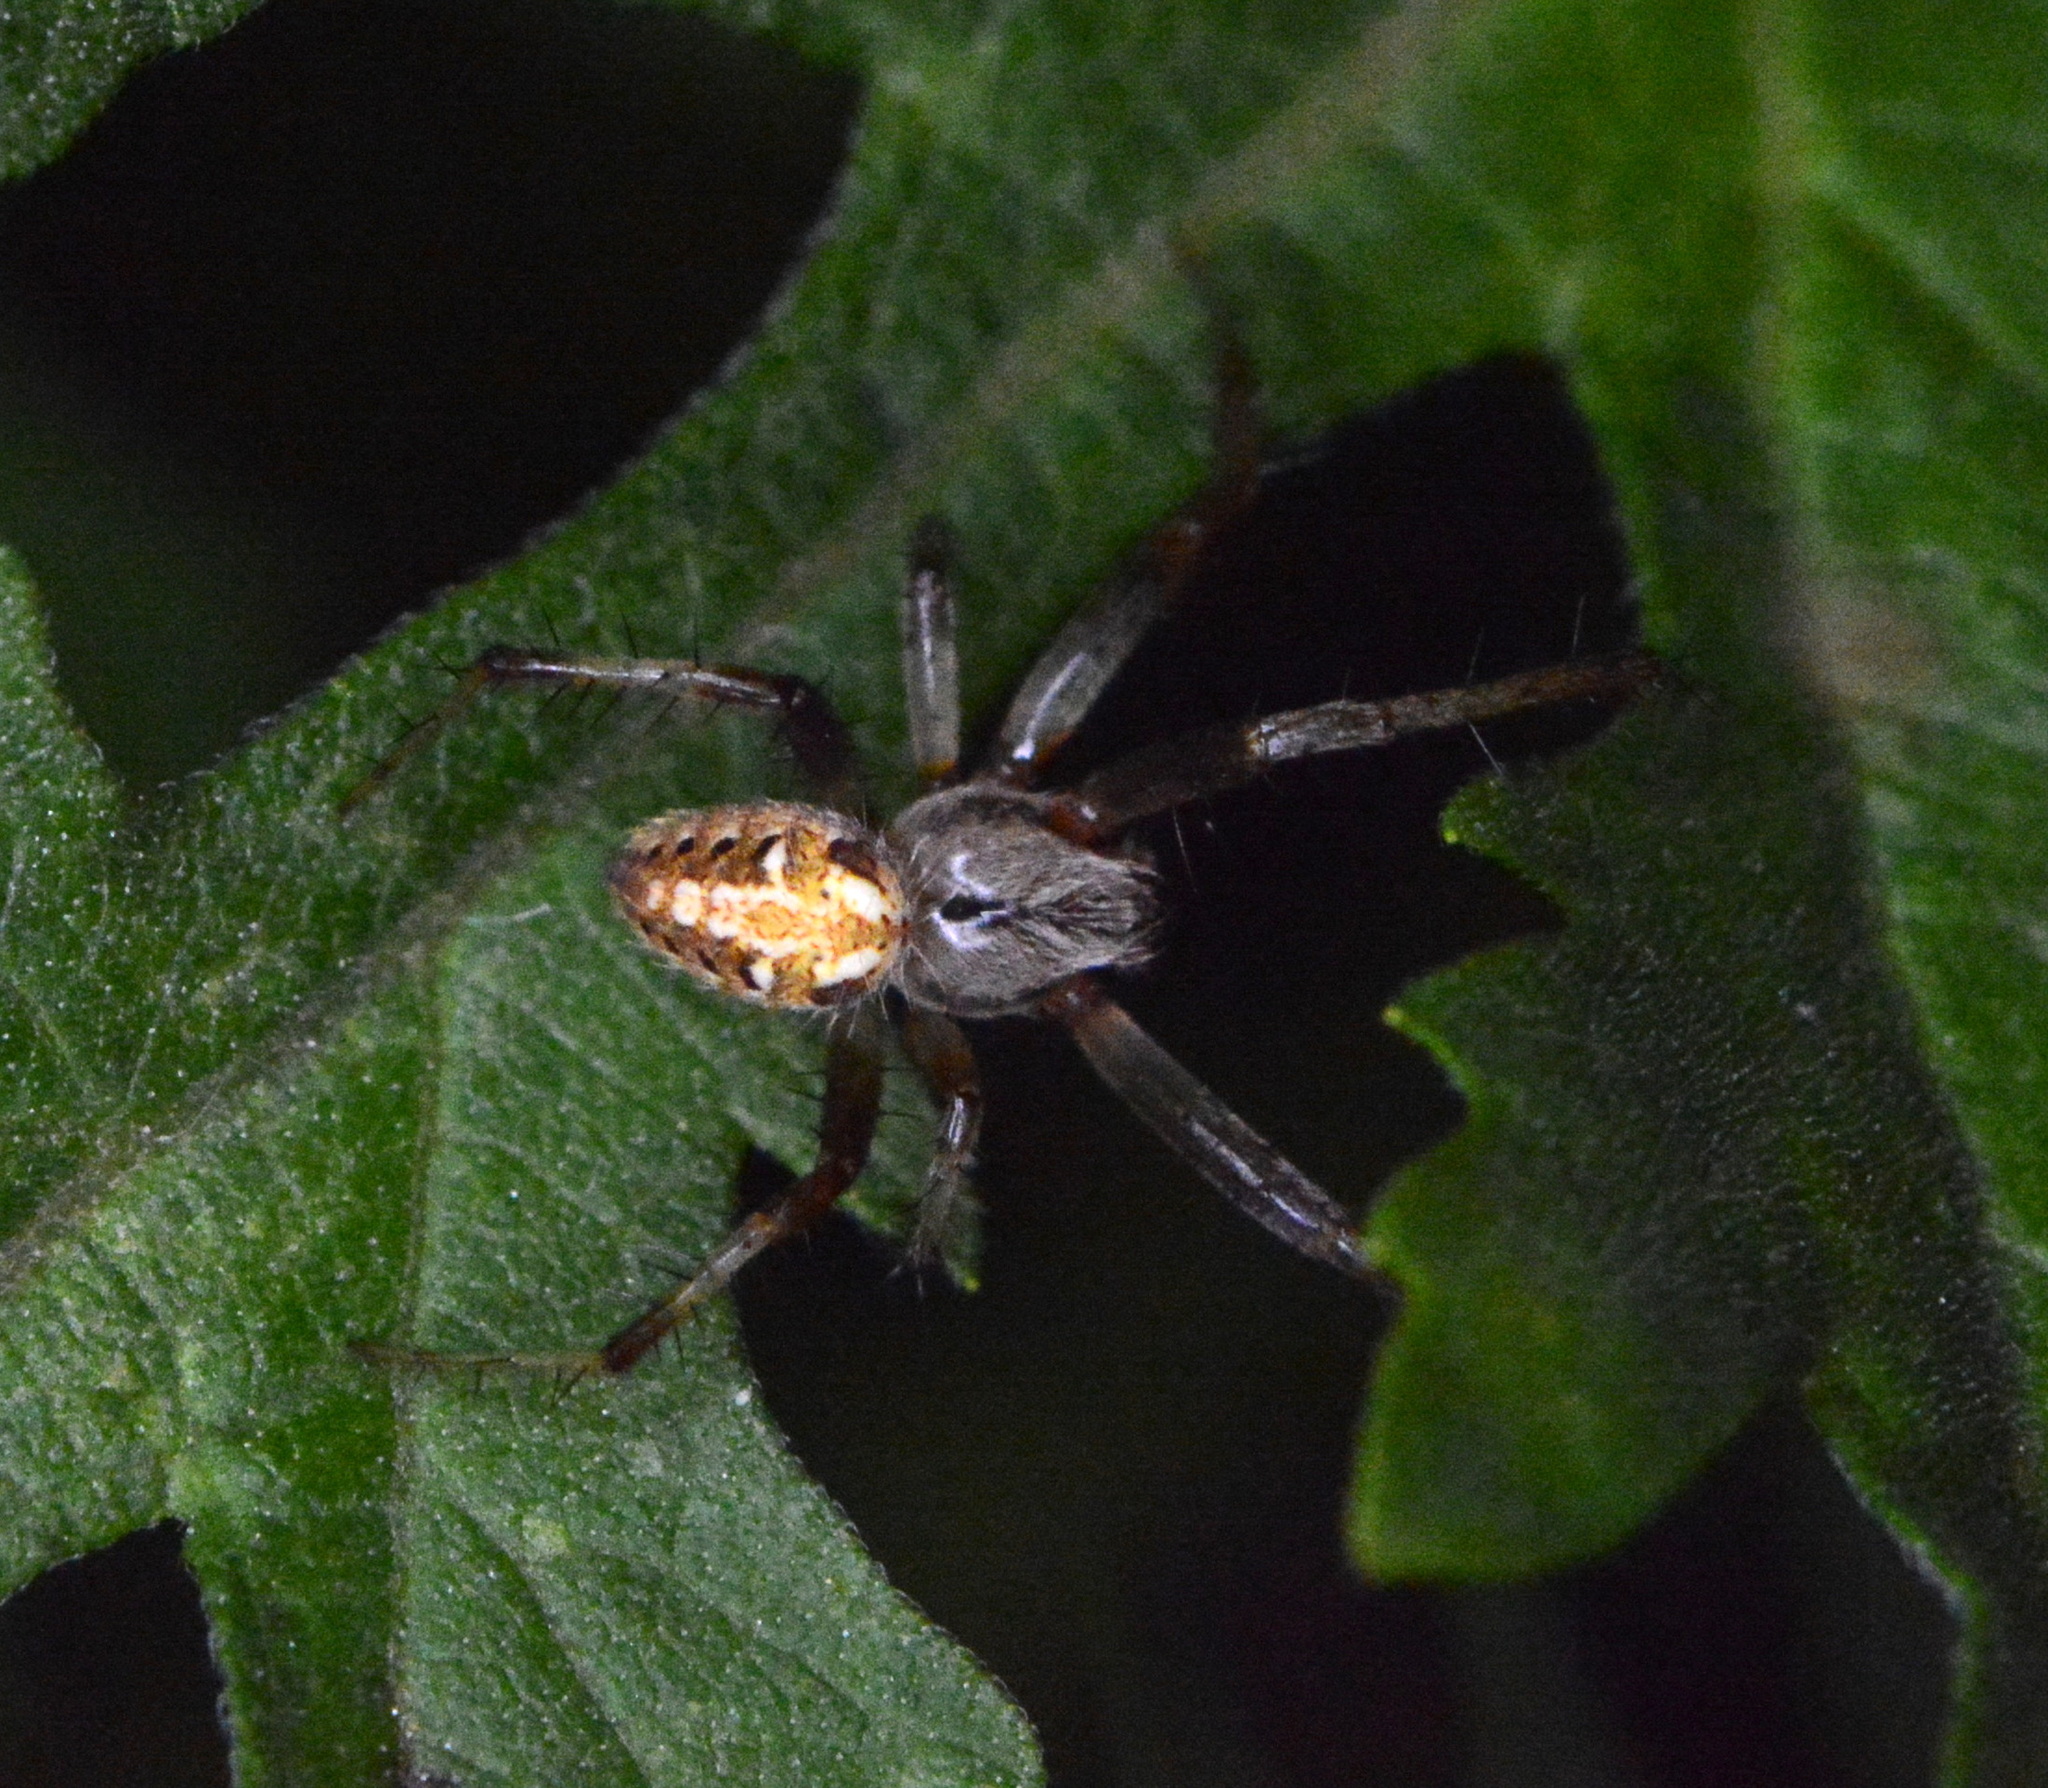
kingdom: Animalia
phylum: Arthropoda
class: Arachnida
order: Araneae
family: Araneidae
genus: Neoscona
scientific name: Neoscona arabesca
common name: Orb weavers
